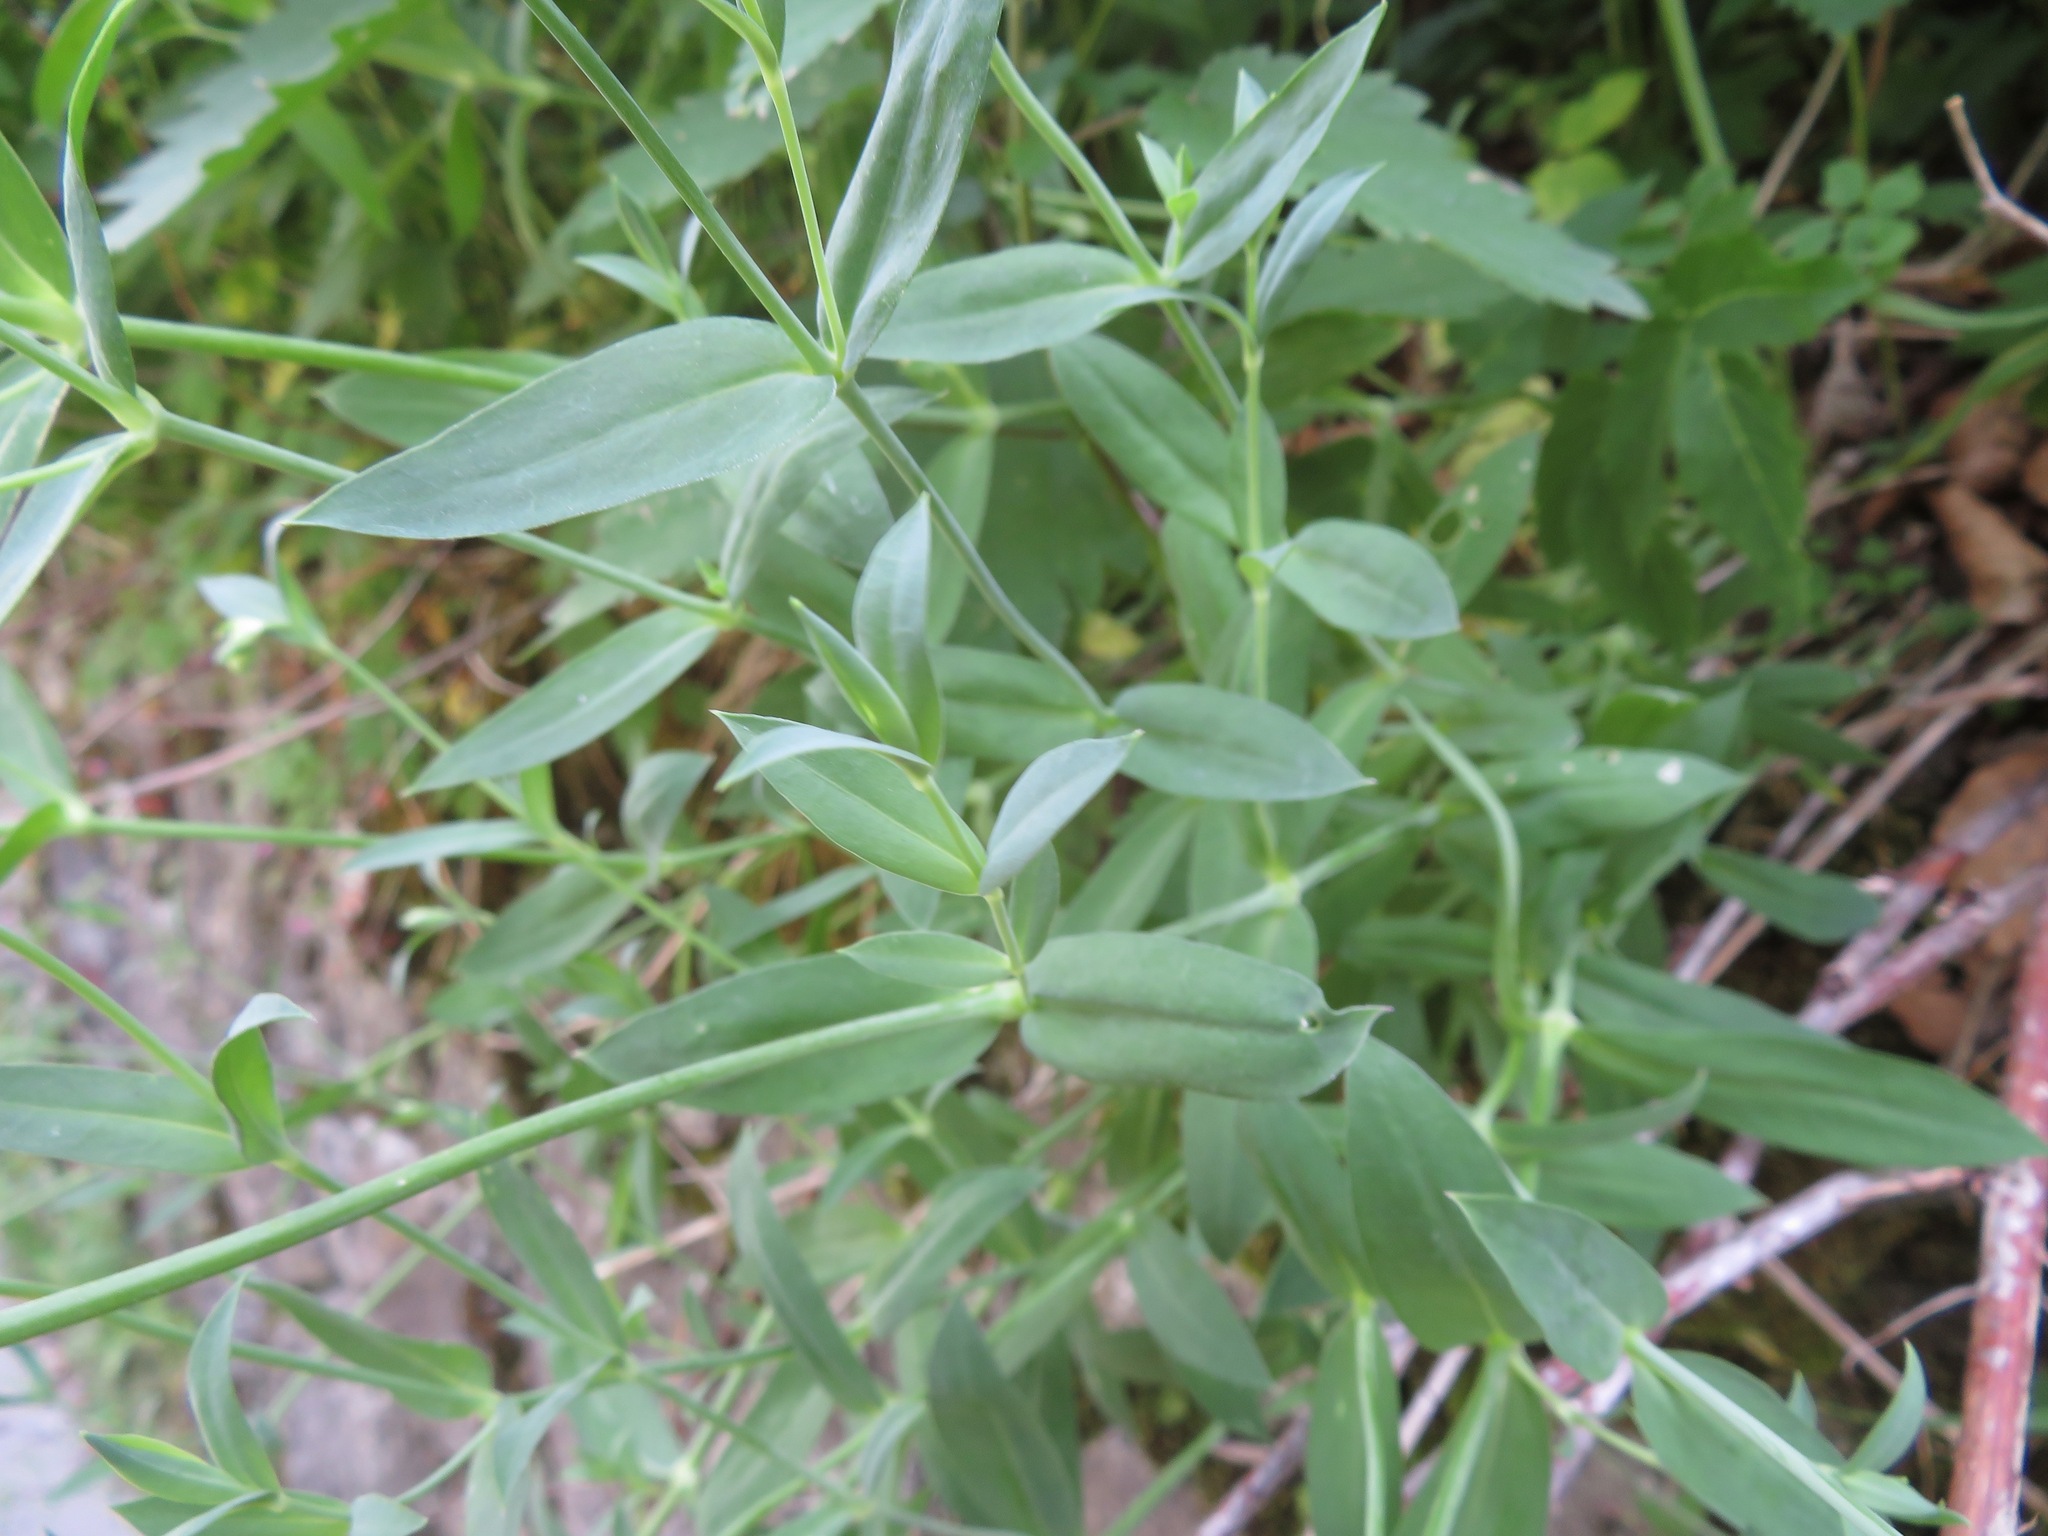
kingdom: Plantae
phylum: Tracheophyta
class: Magnoliopsida
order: Caryophyllales
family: Caryophyllaceae
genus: Silene
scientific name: Silene vulgaris
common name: Bladder campion
